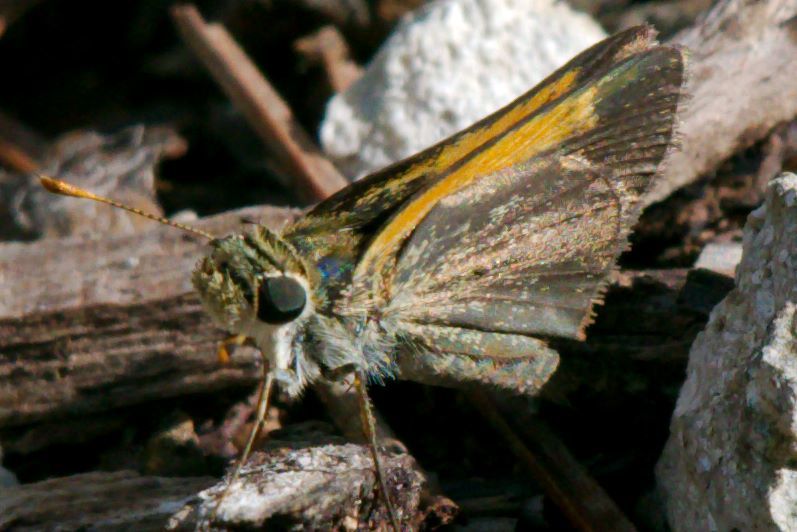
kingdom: Animalia
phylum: Arthropoda
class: Insecta
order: Lepidoptera
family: Hesperiidae
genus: Polites
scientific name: Polites baracoa
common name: Baracoa skipper
